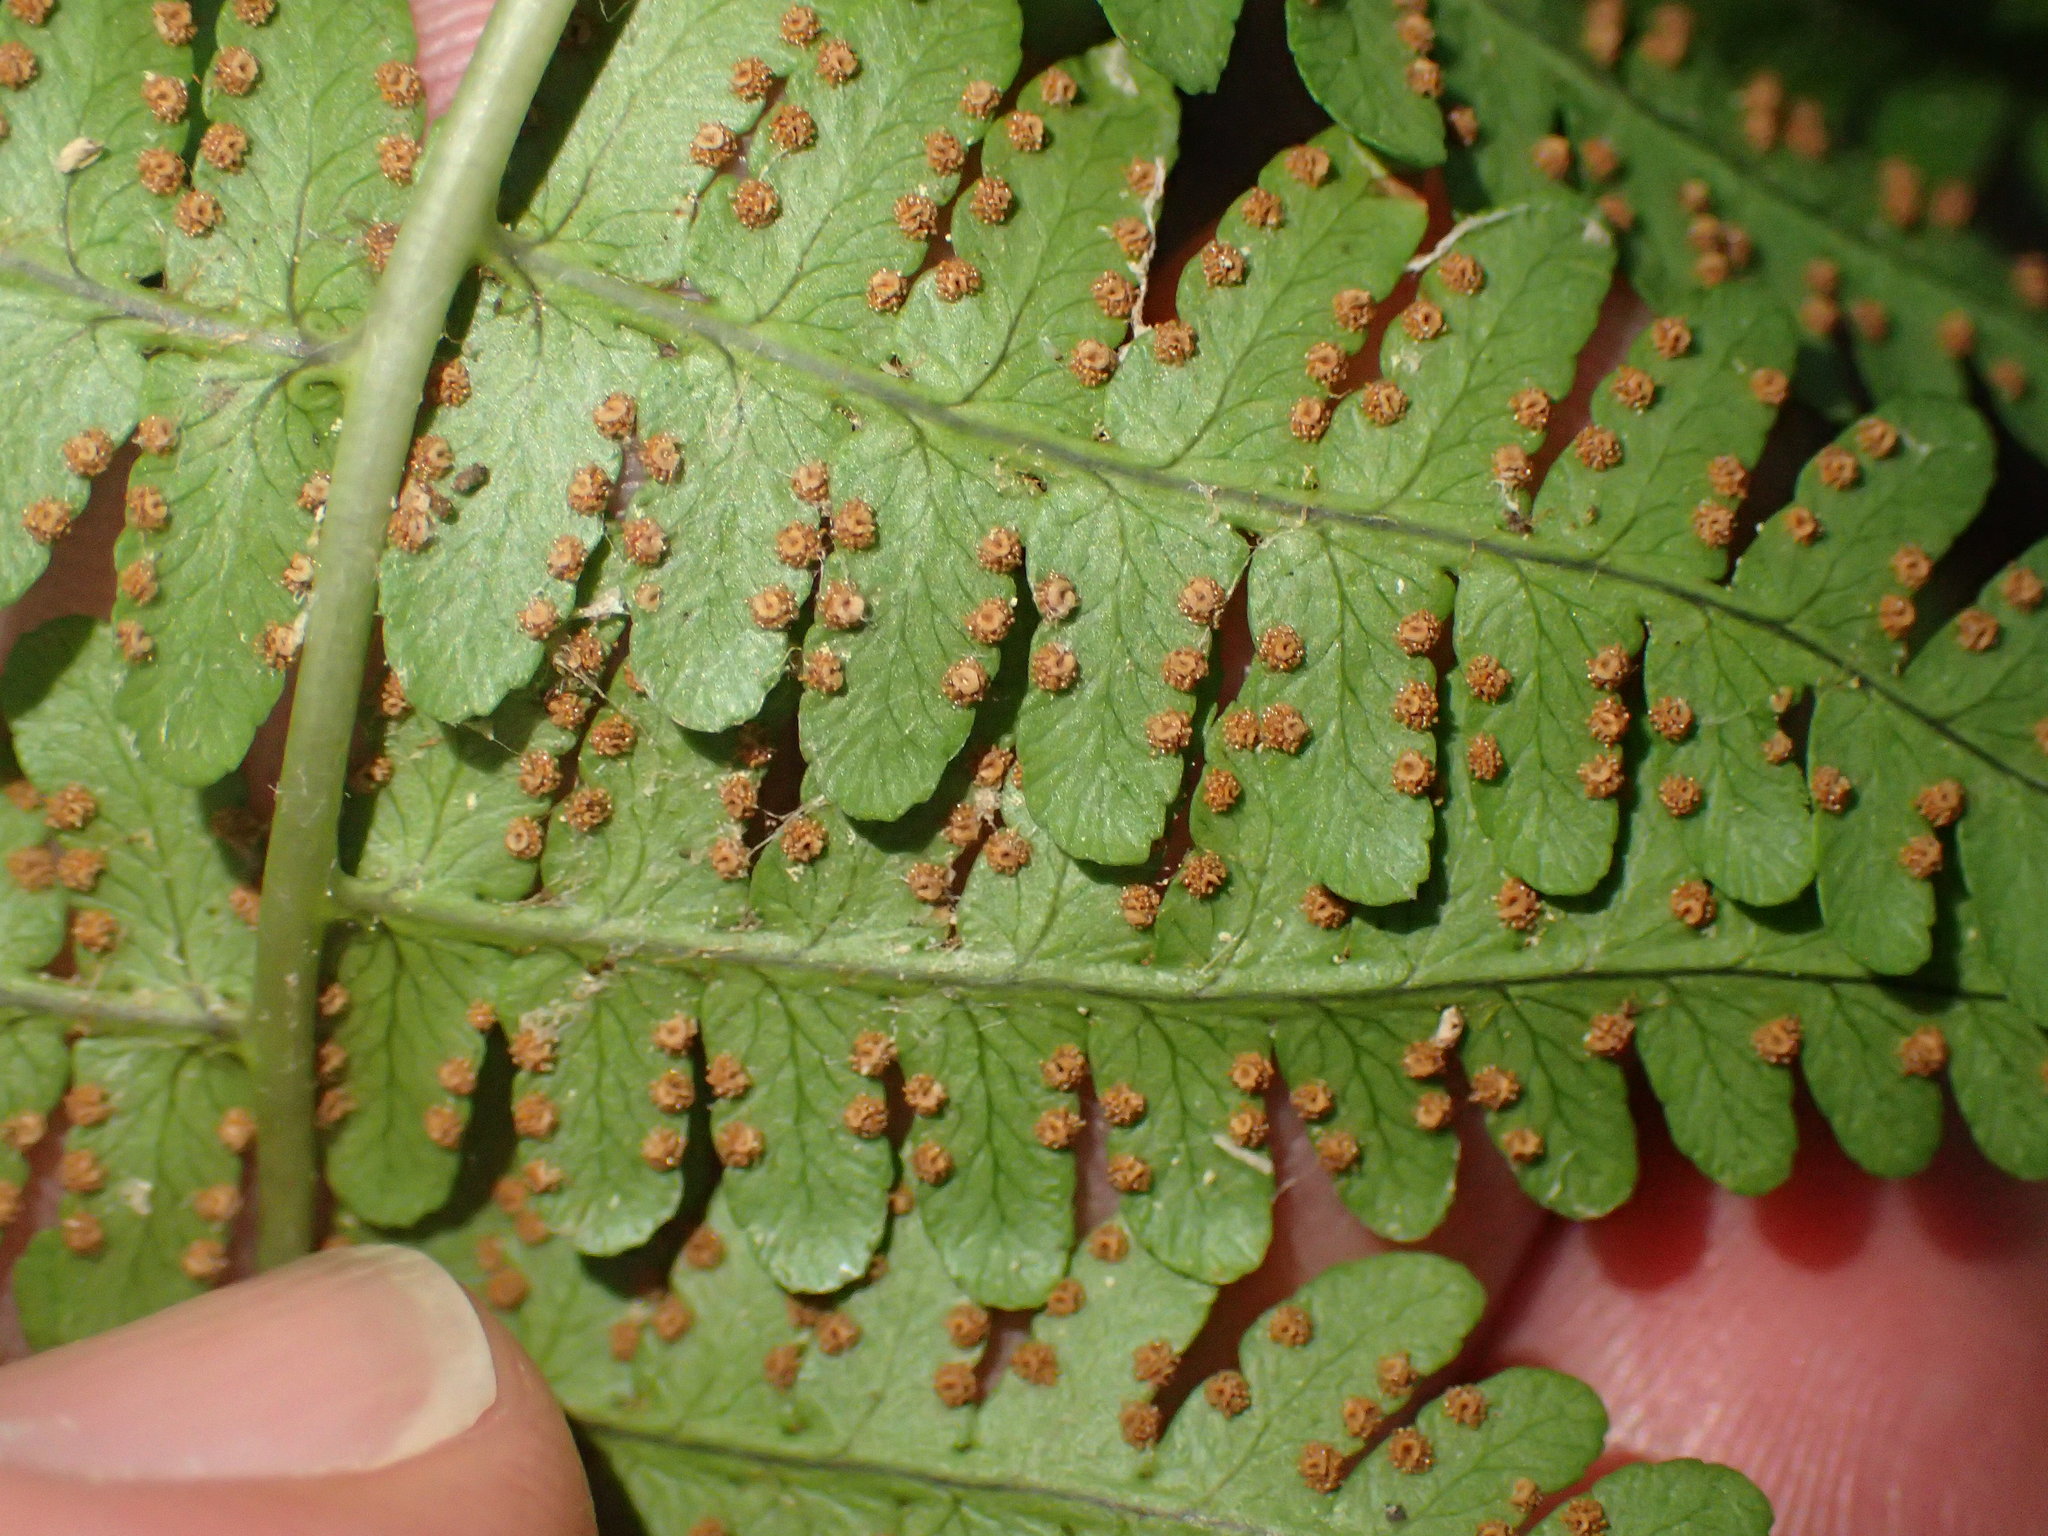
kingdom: Plantae
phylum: Tracheophyta
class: Polypodiopsida
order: Polypodiales
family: Dryopteridaceae
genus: Dryopteris
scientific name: Dryopteris marginalis
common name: Marginal wood fern
